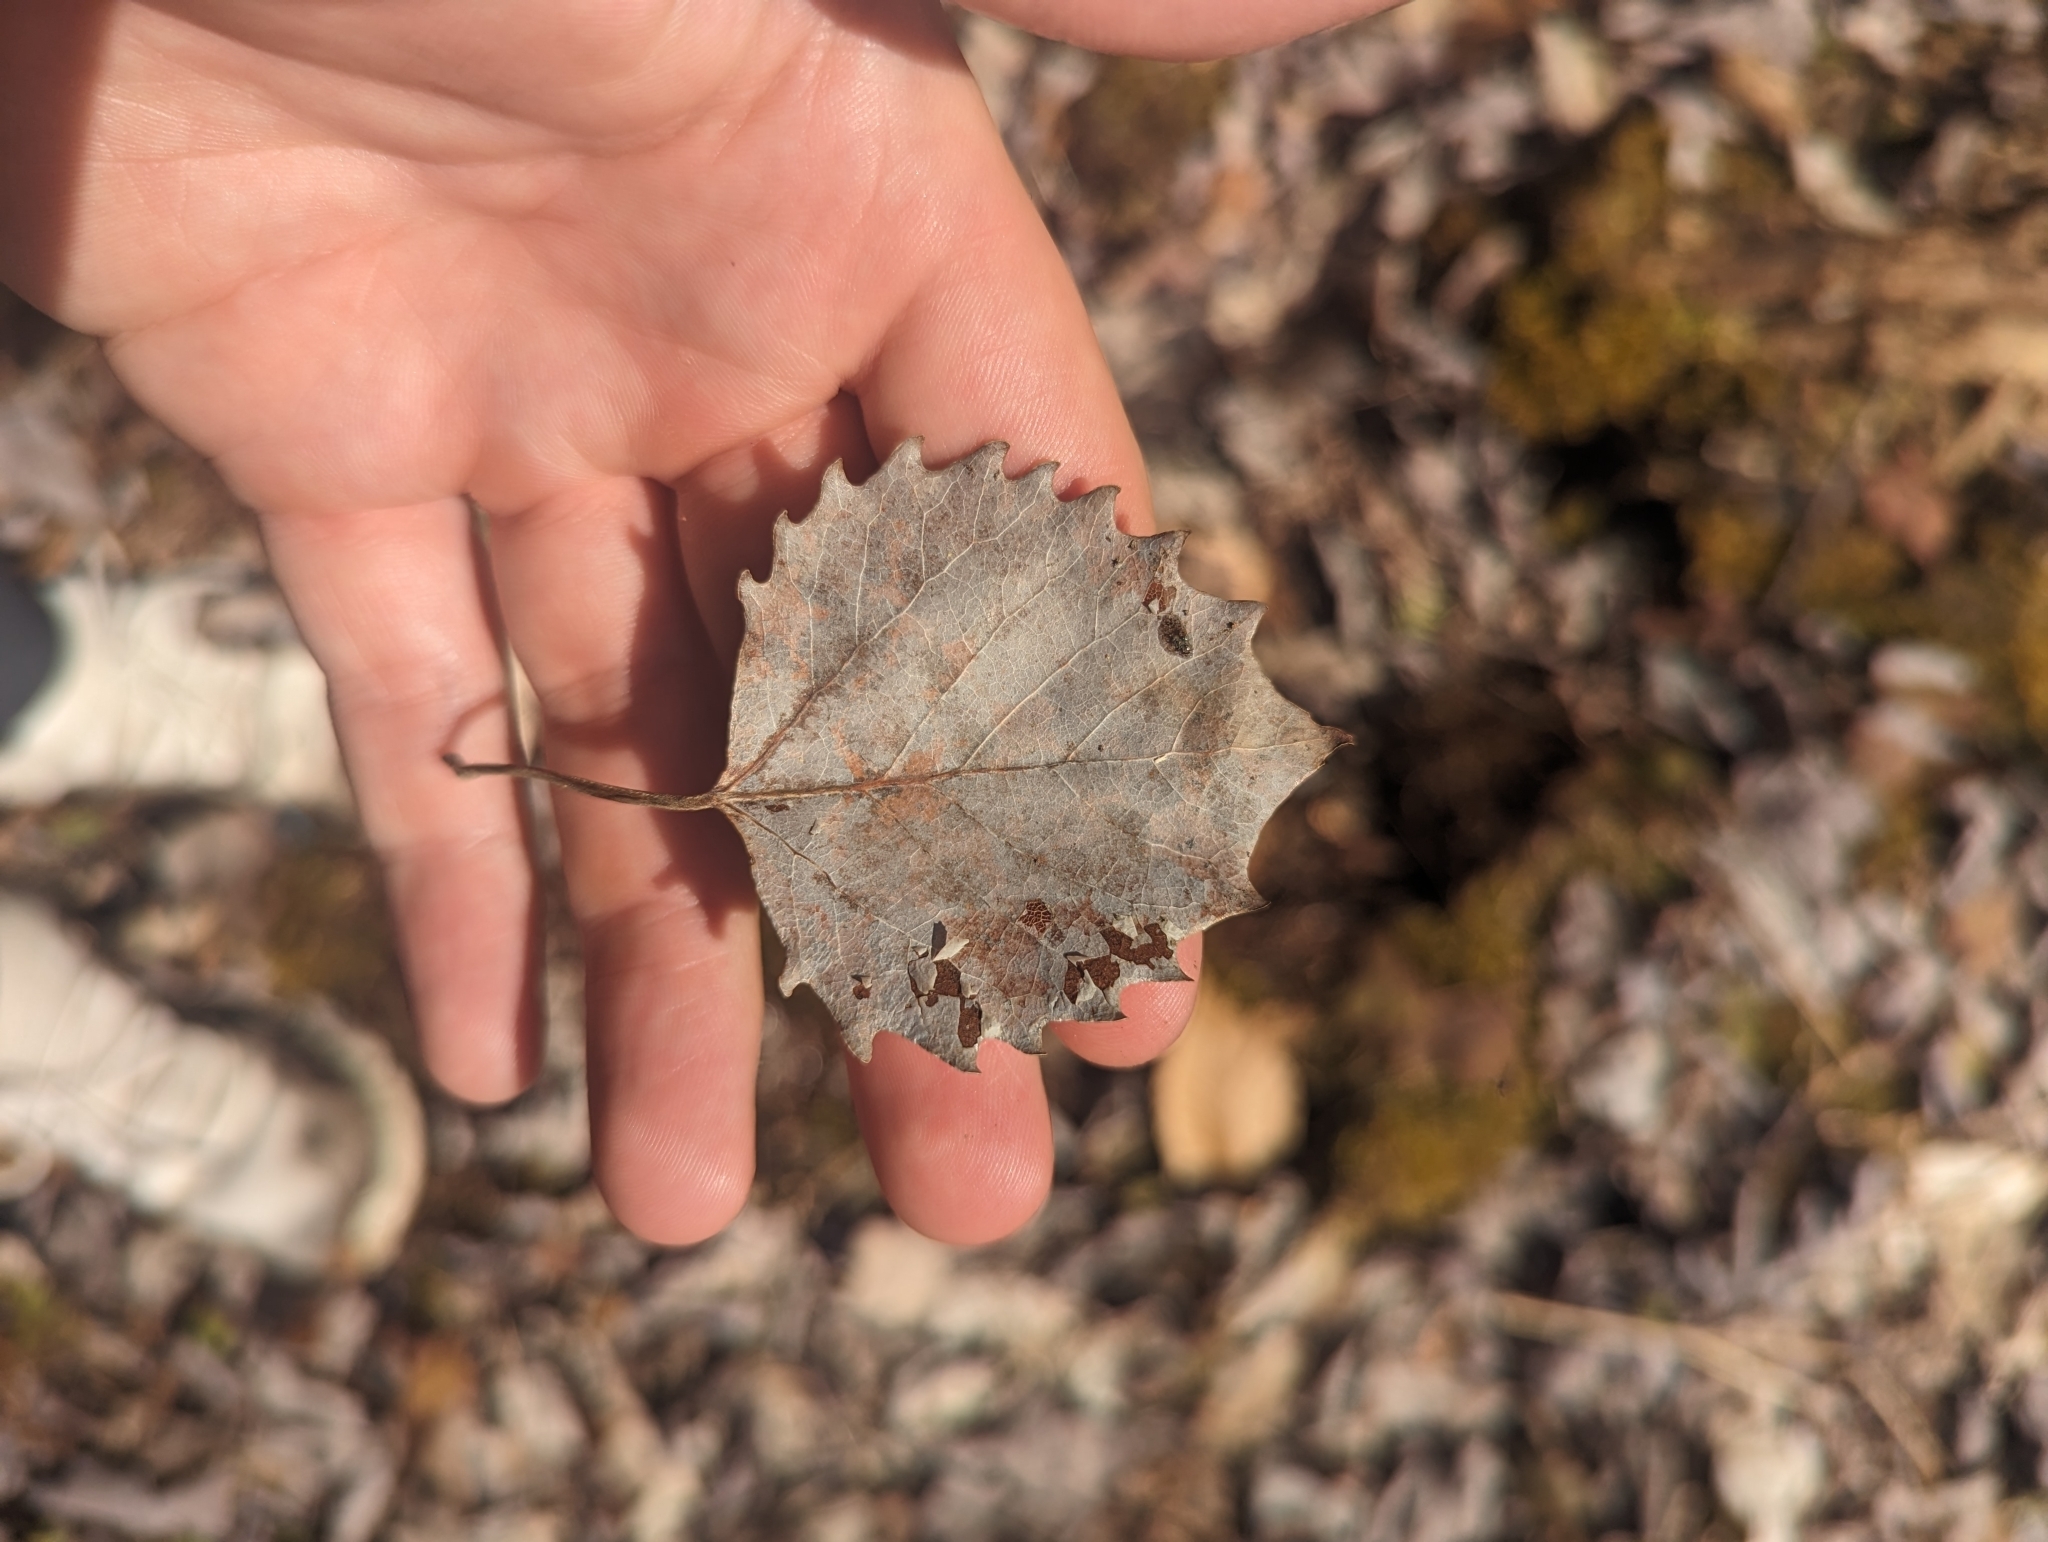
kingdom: Plantae
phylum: Tracheophyta
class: Magnoliopsida
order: Malpighiales
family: Salicaceae
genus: Populus
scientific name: Populus grandidentata
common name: Bigtooth aspen
